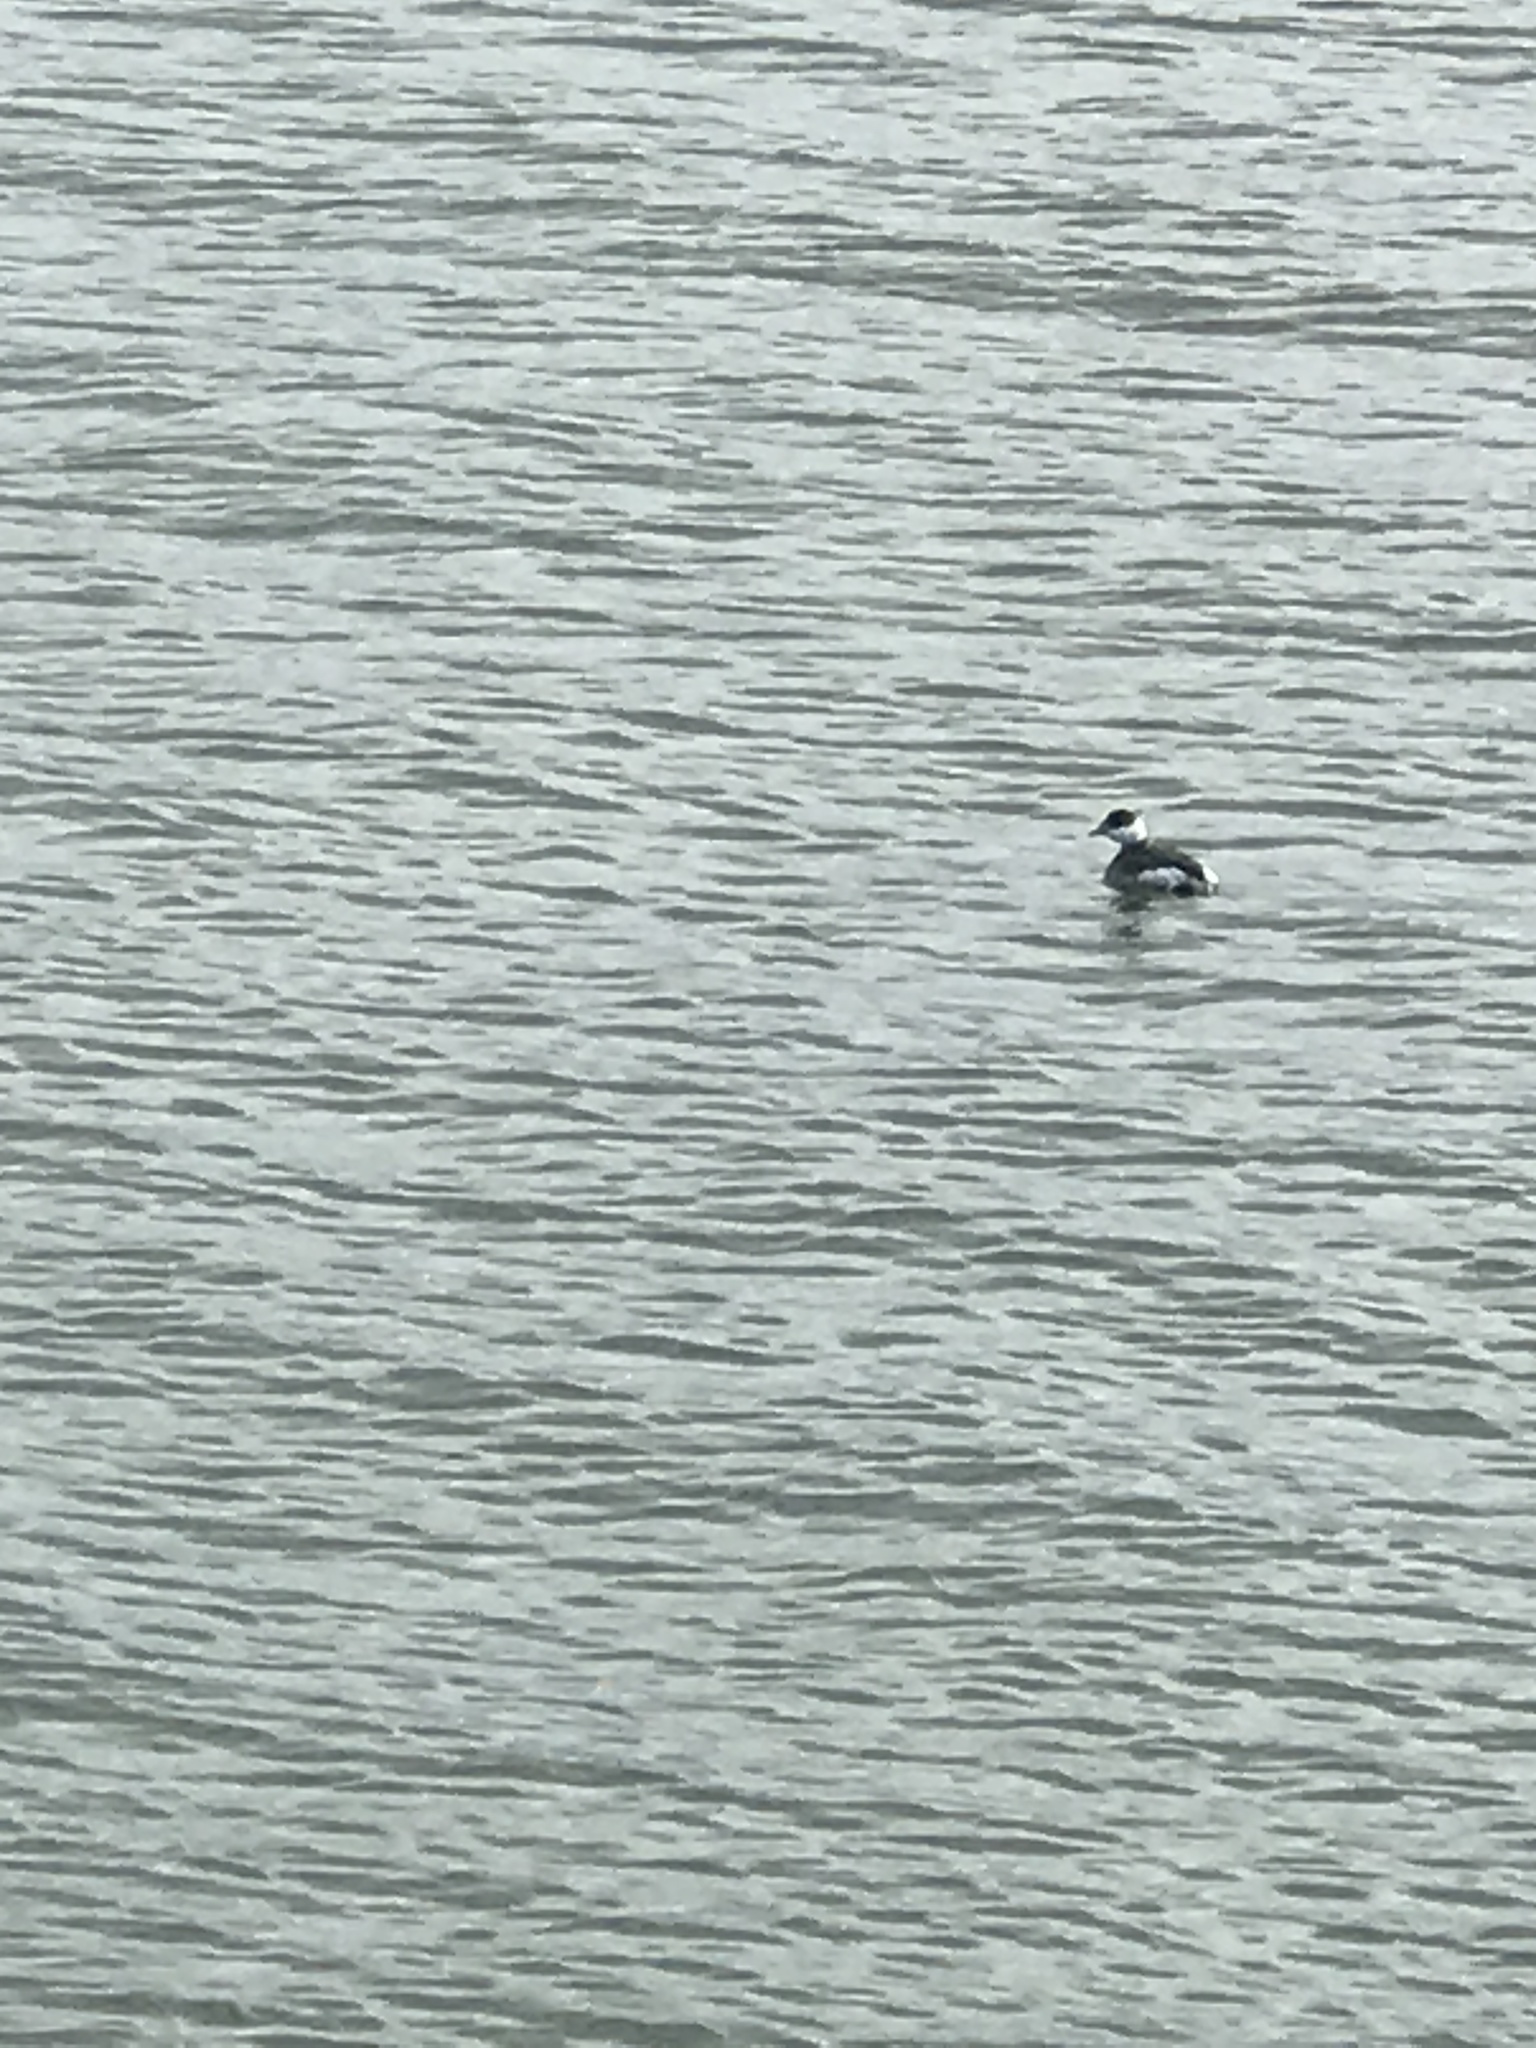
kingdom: Animalia
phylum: Chordata
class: Aves
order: Podicipediformes
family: Podicipedidae
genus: Podiceps
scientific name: Podiceps auritus
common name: Horned grebe
